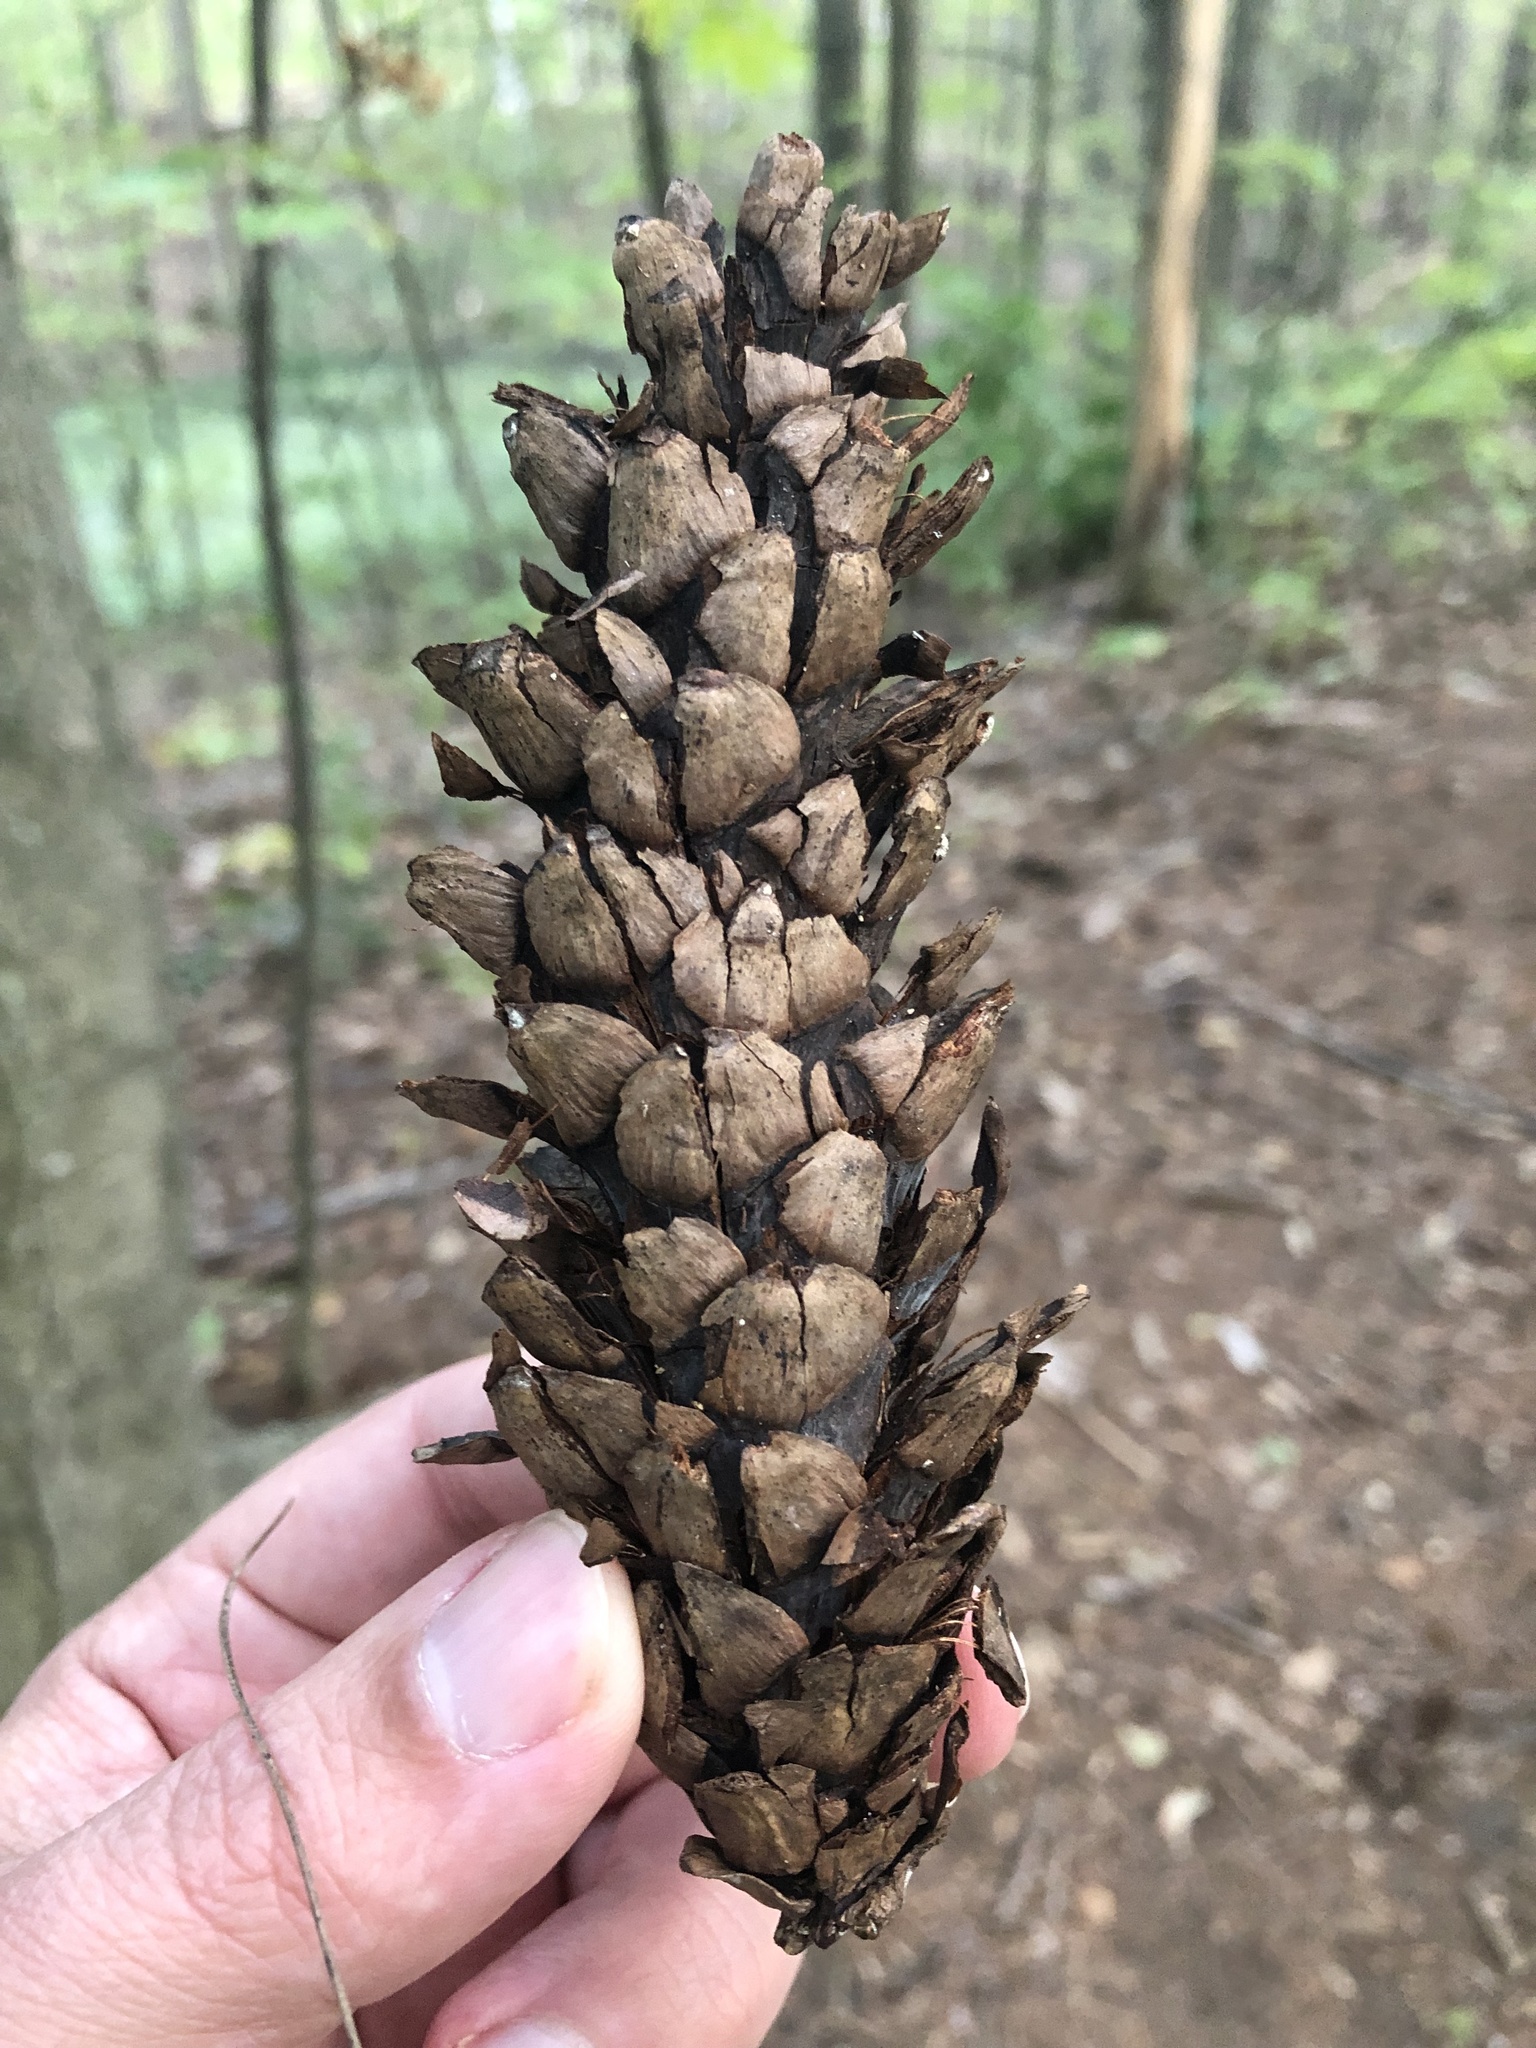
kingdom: Plantae
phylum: Tracheophyta
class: Pinopsida
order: Pinales
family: Pinaceae
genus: Pinus
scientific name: Pinus strobus
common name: Weymouth pine
